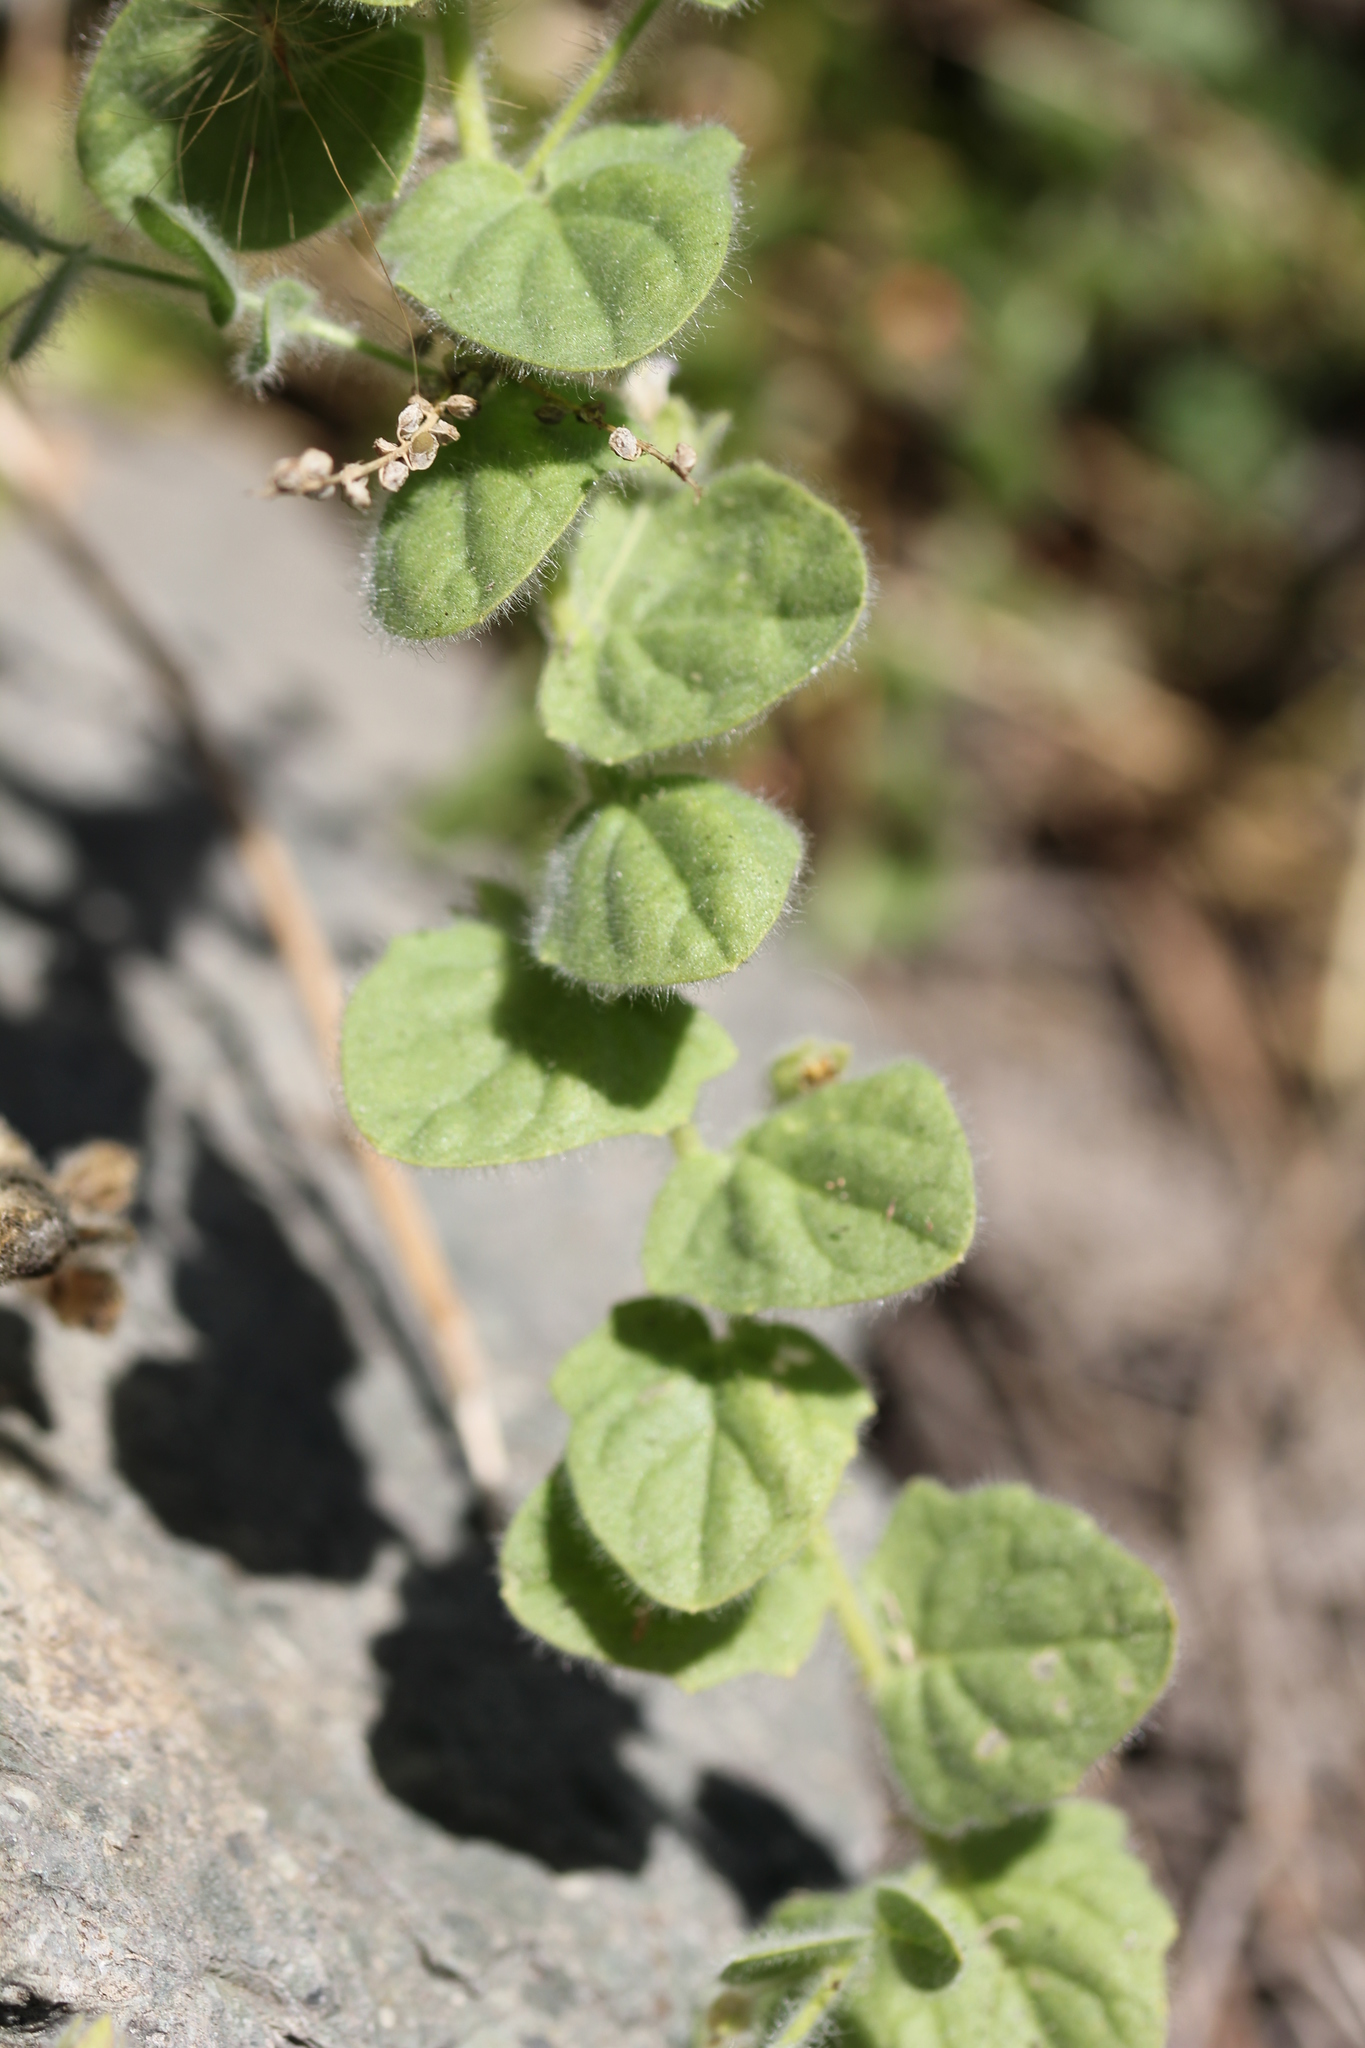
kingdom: Plantae
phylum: Tracheophyta
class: Magnoliopsida
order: Lamiales
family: Plantaginaceae
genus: Kickxia
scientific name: Kickxia elatine
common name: Sharp-leaved fluellen
